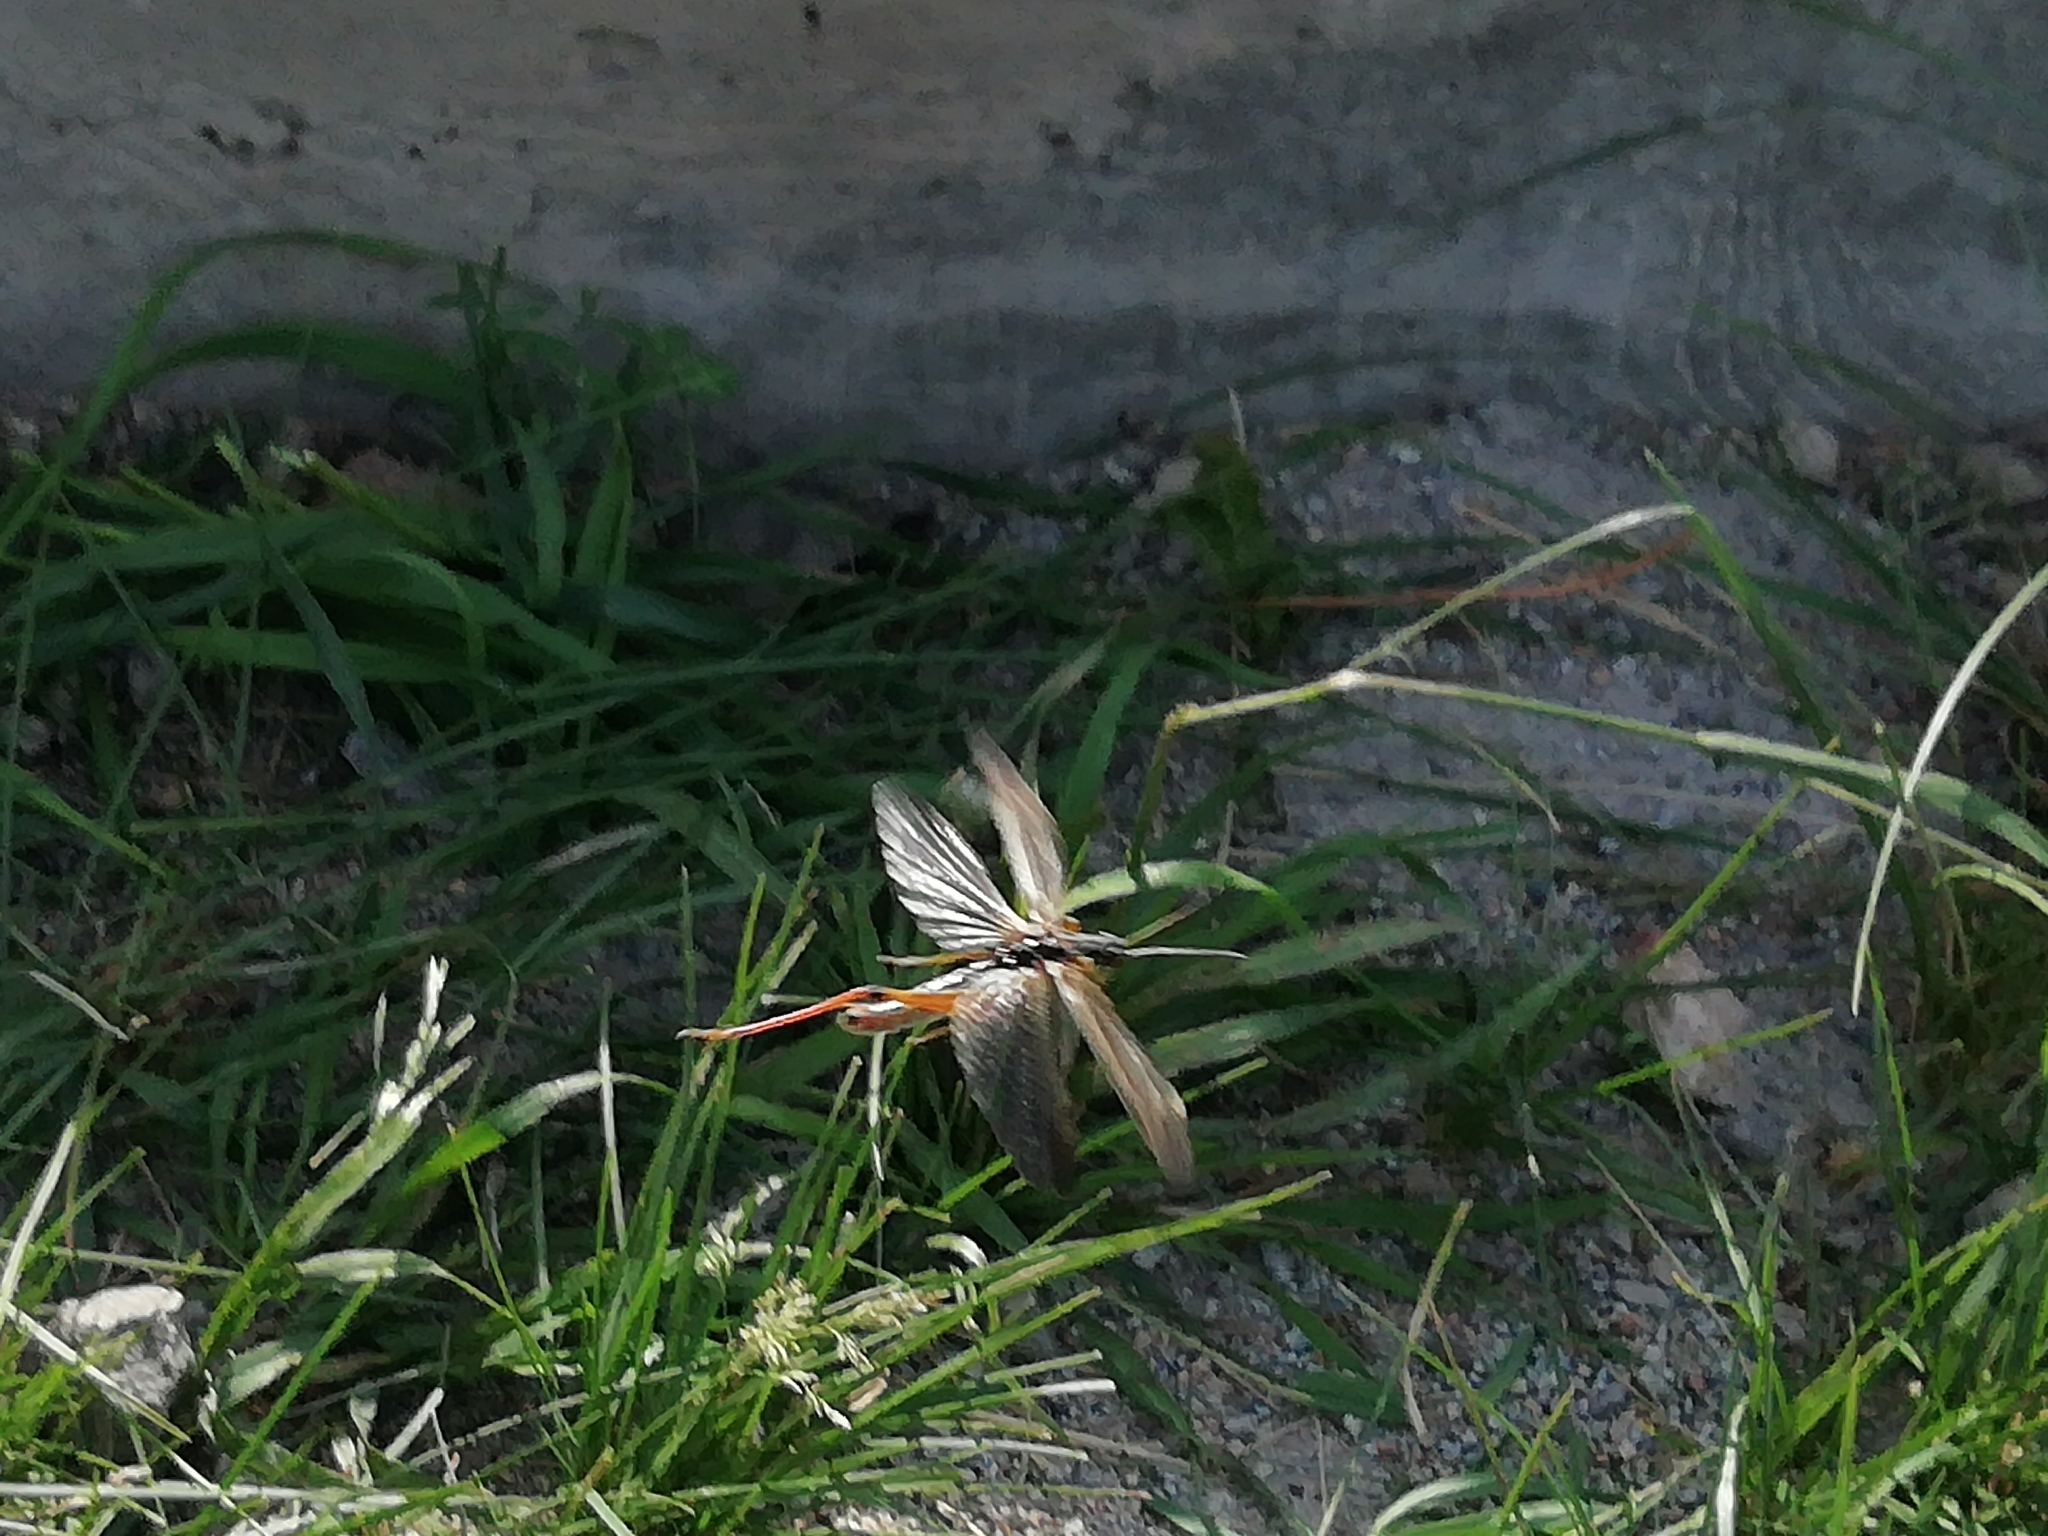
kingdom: Animalia
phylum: Arthropoda
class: Insecta
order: Orthoptera
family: Acrididae
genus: Stauroderus
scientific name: Stauroderus scalaris
